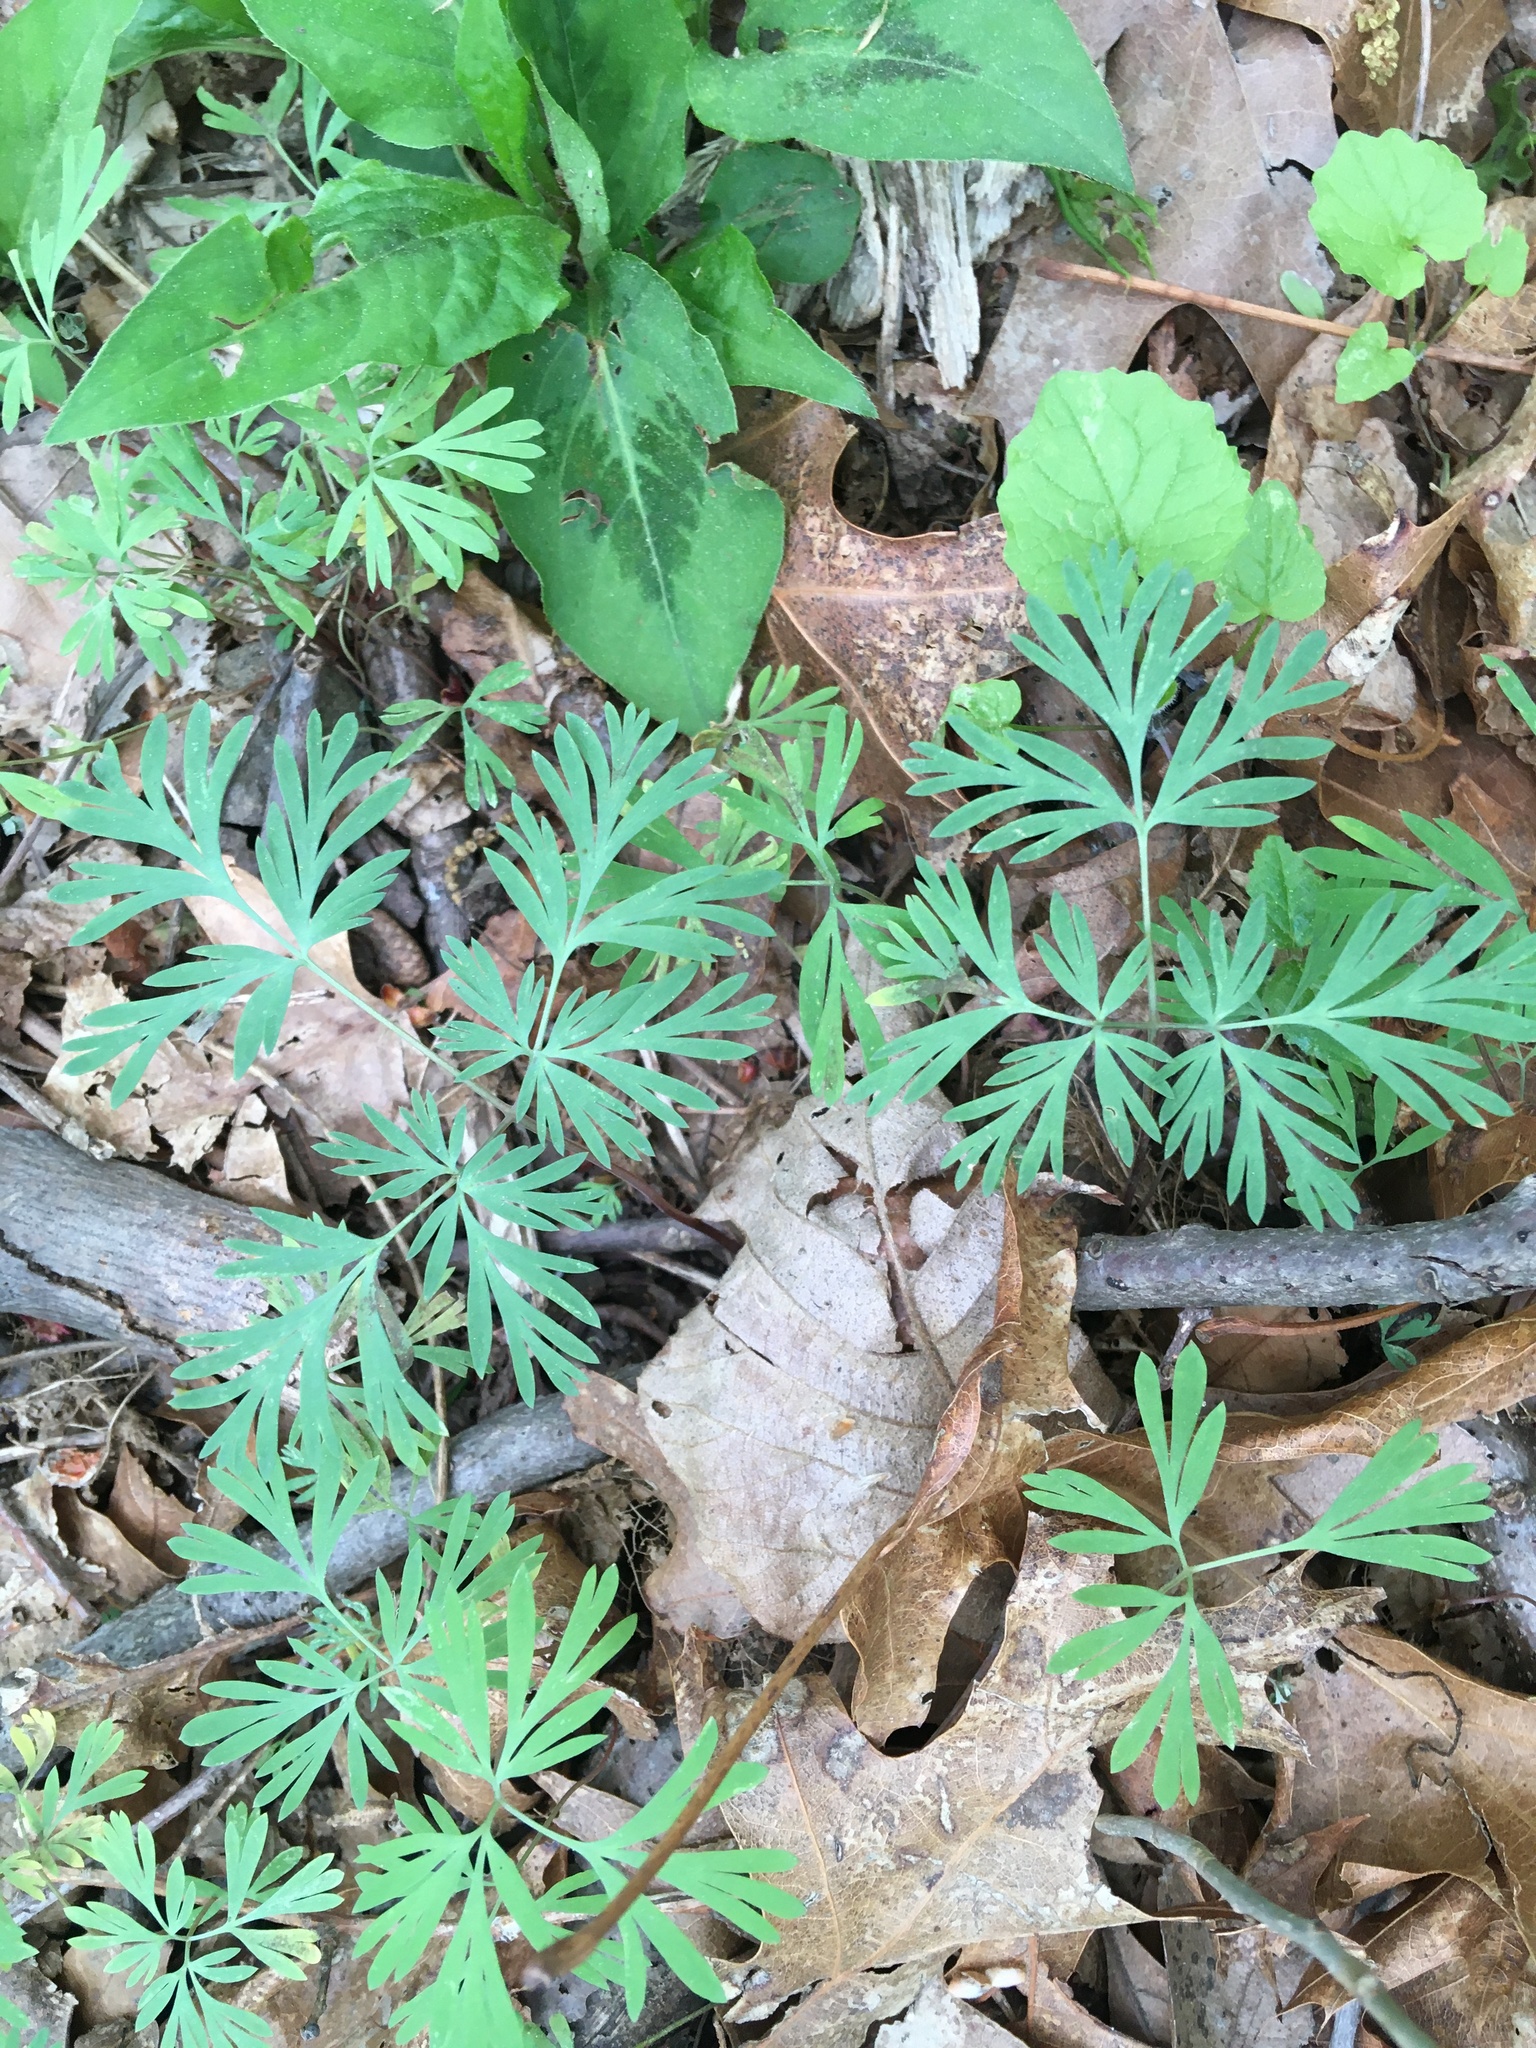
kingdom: Plantae
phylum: Tracheophyta
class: Magnoliopsida
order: Ranunculales
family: Papaveraceae
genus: Dicentra
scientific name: Dicentra cucullaria
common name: Dutchman's breeches
